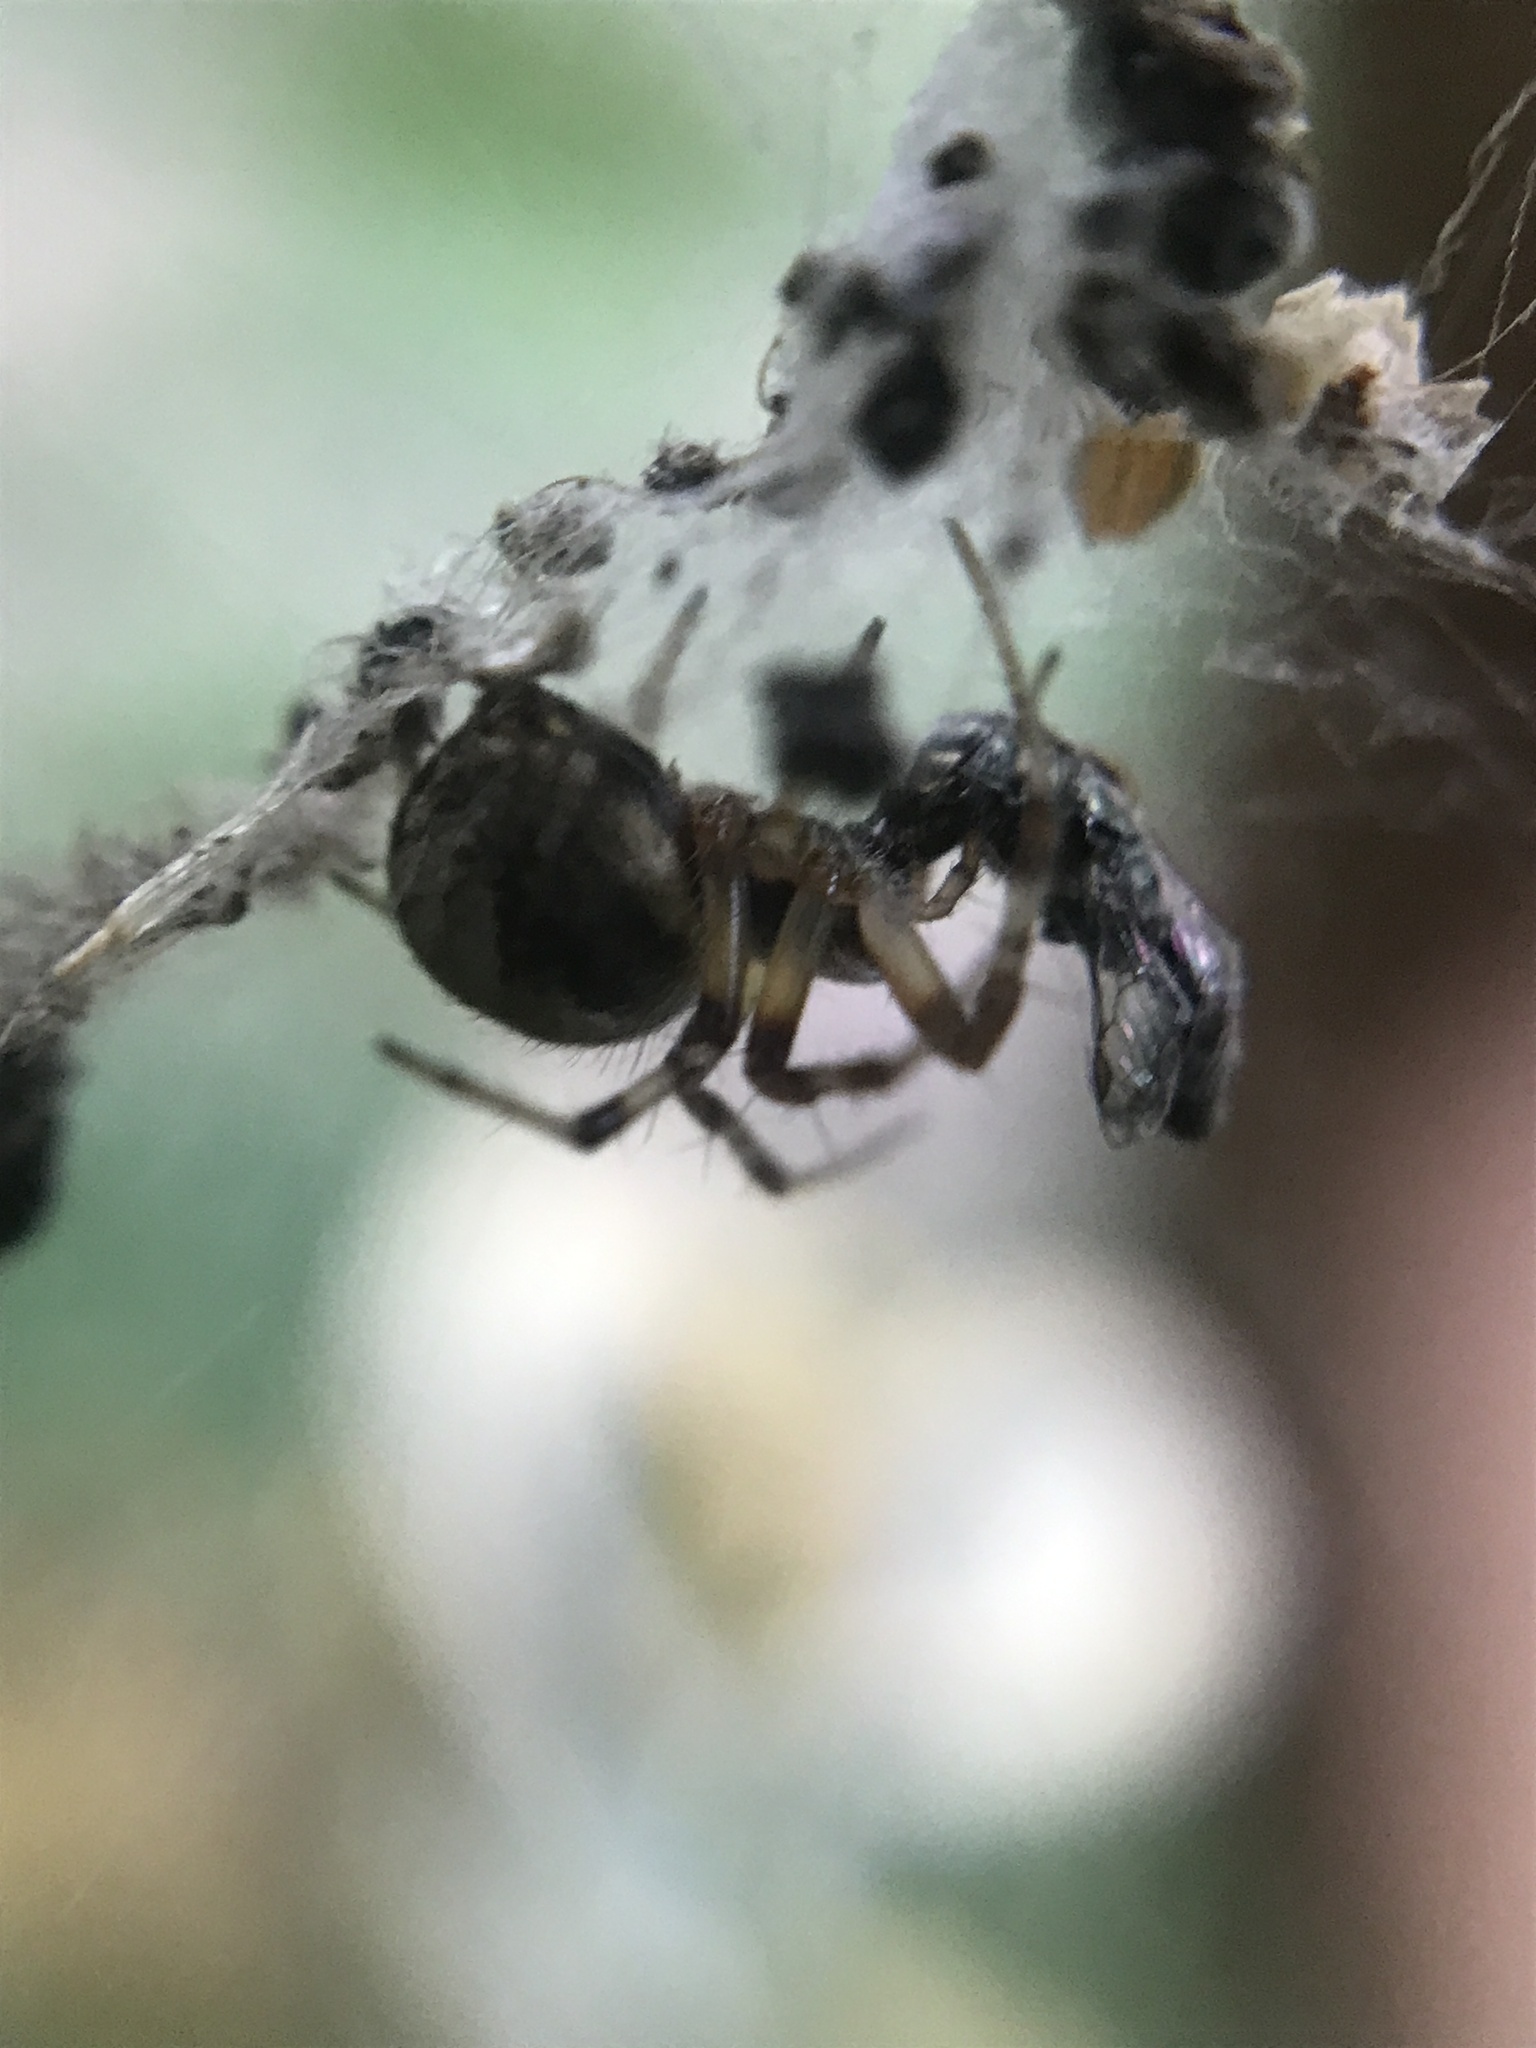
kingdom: Animalia
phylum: Arthropoda
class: Arachnida
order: Araneae
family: Araneidae
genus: Metepeira
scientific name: Metepeira
